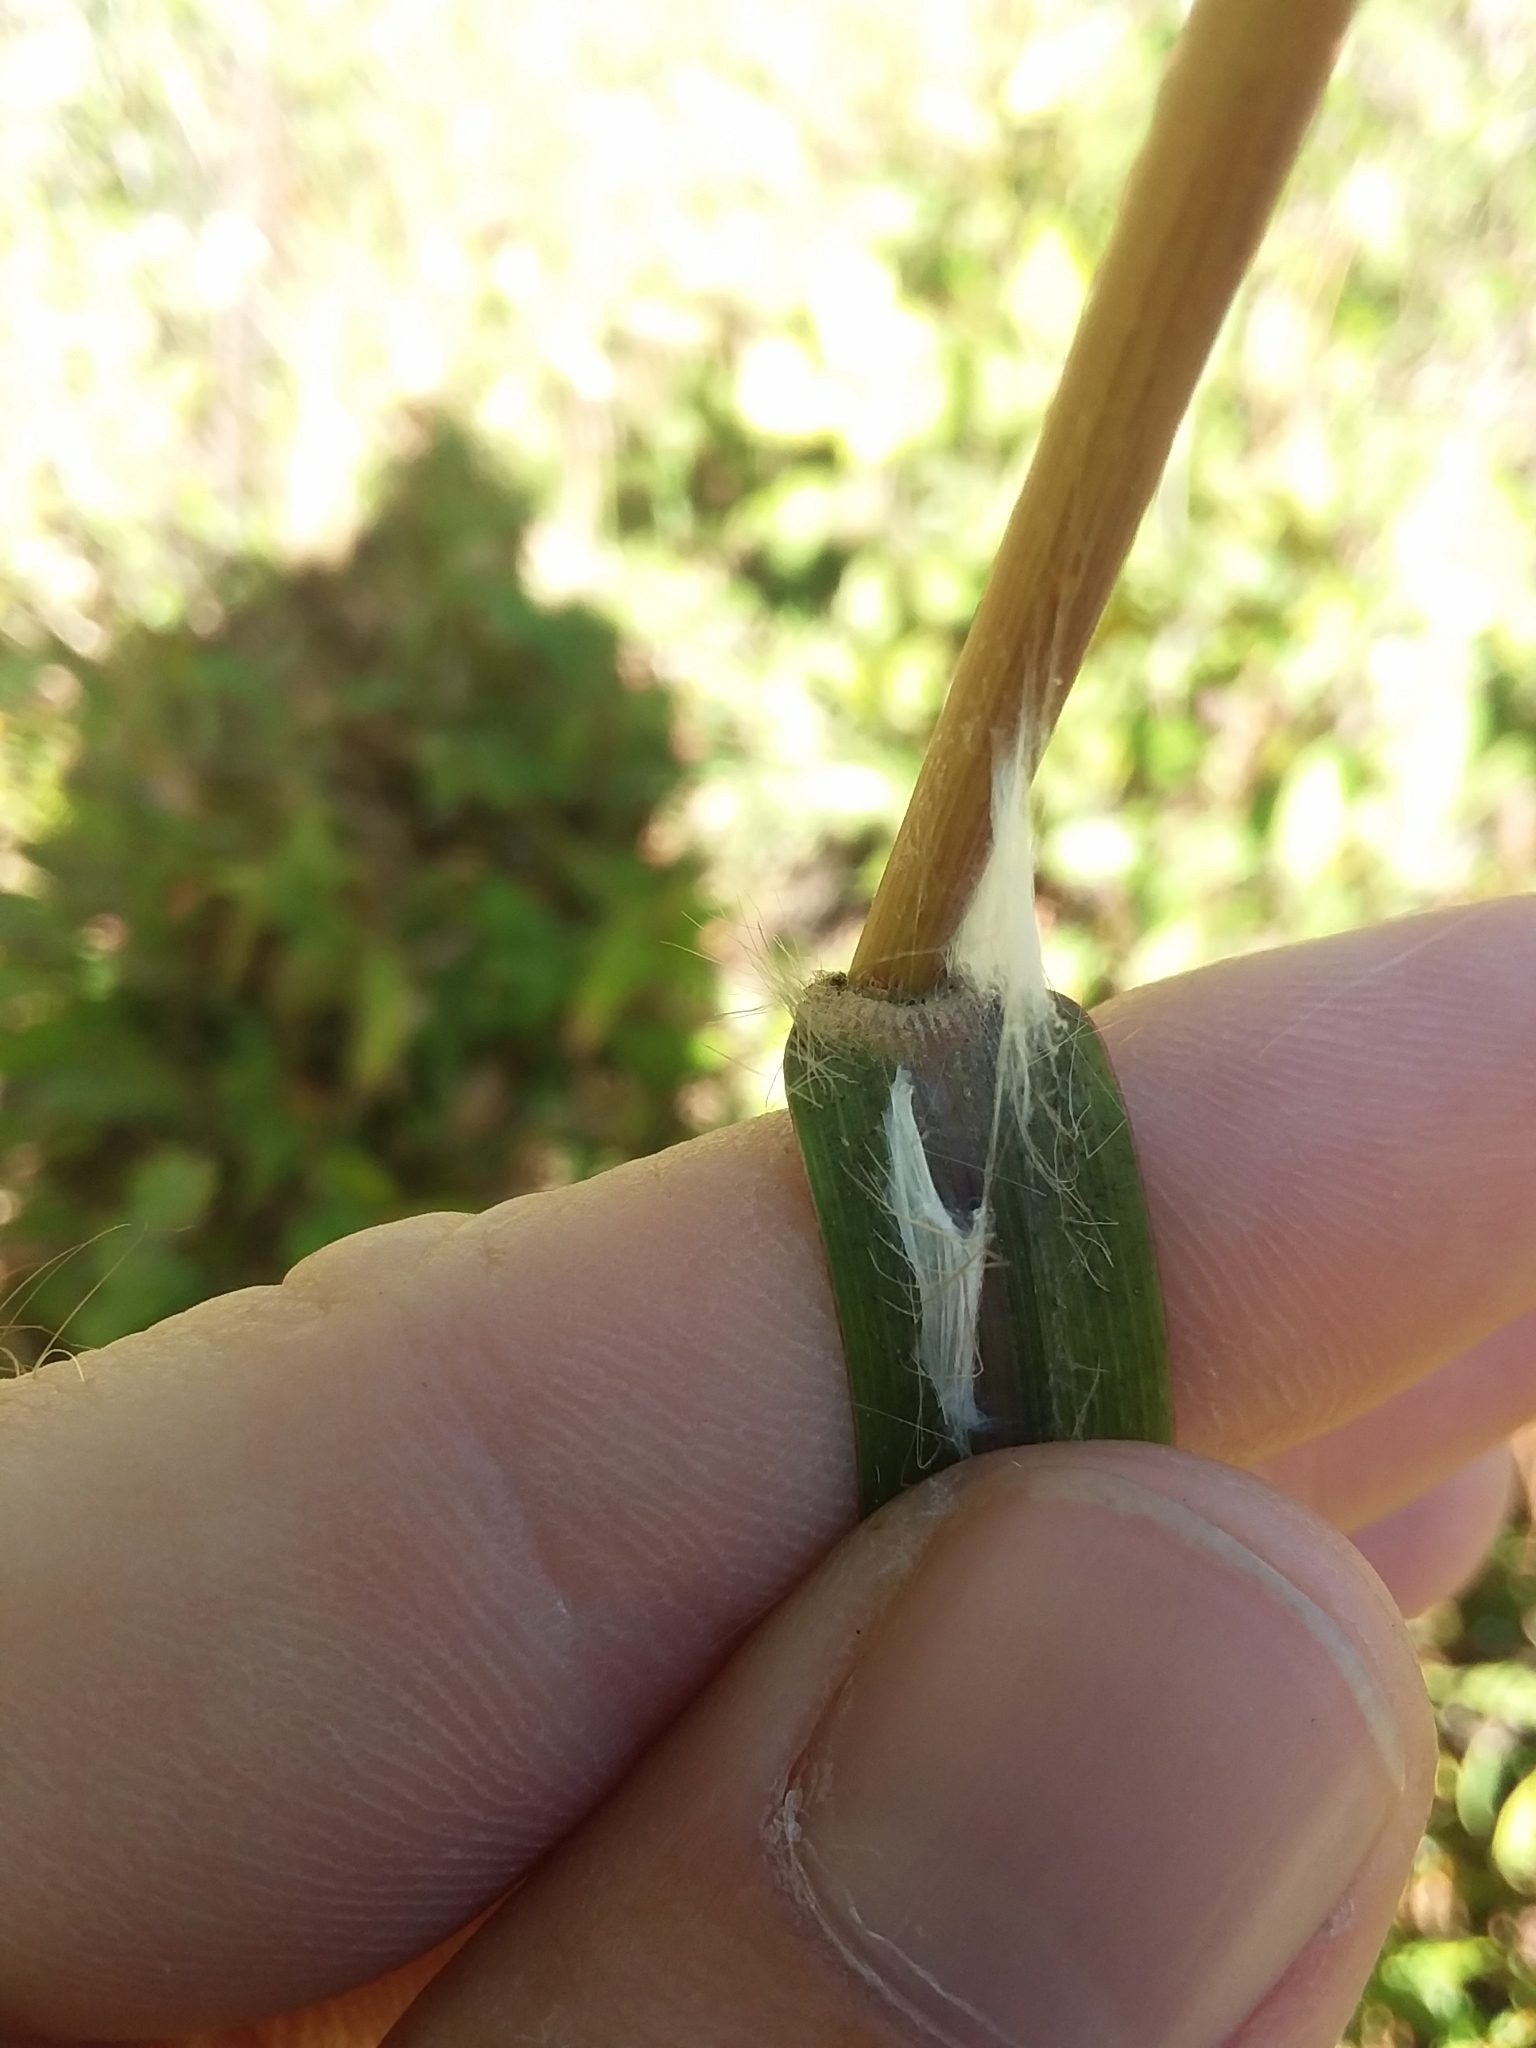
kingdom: Plantae
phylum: Tracheophyta
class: Liliopsida
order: Poales
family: Poaceae
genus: Erianthus
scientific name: Erianthus alopecuroides
